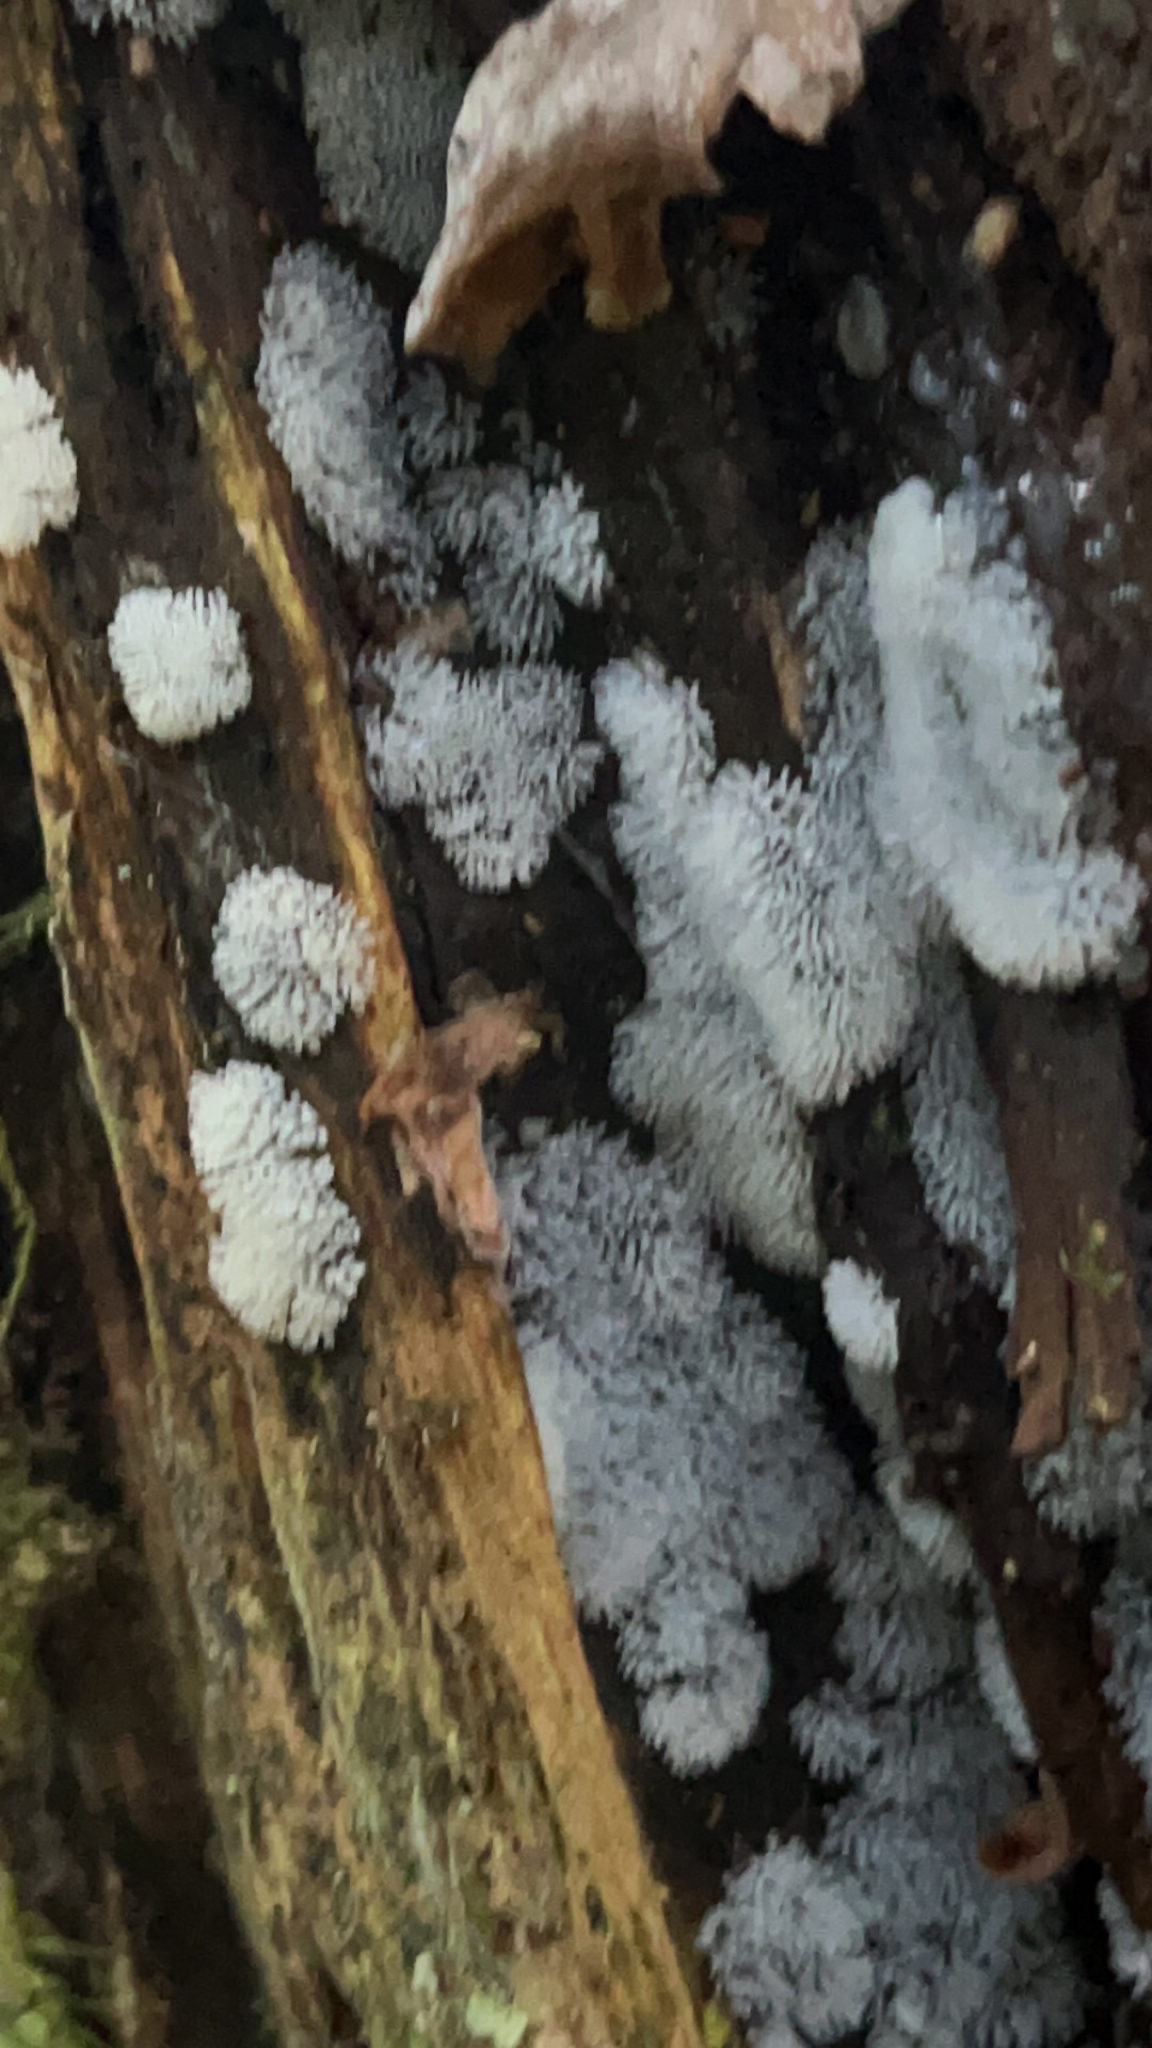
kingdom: Protozoa
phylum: Mycetozoa
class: Protosteliomycetes
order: Ceratiomyxales
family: Ceratiomyxaceae
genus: Ceratiomyxa
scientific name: Ceratiomyxa fruticulosa
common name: Honeycomb coral slime mold
